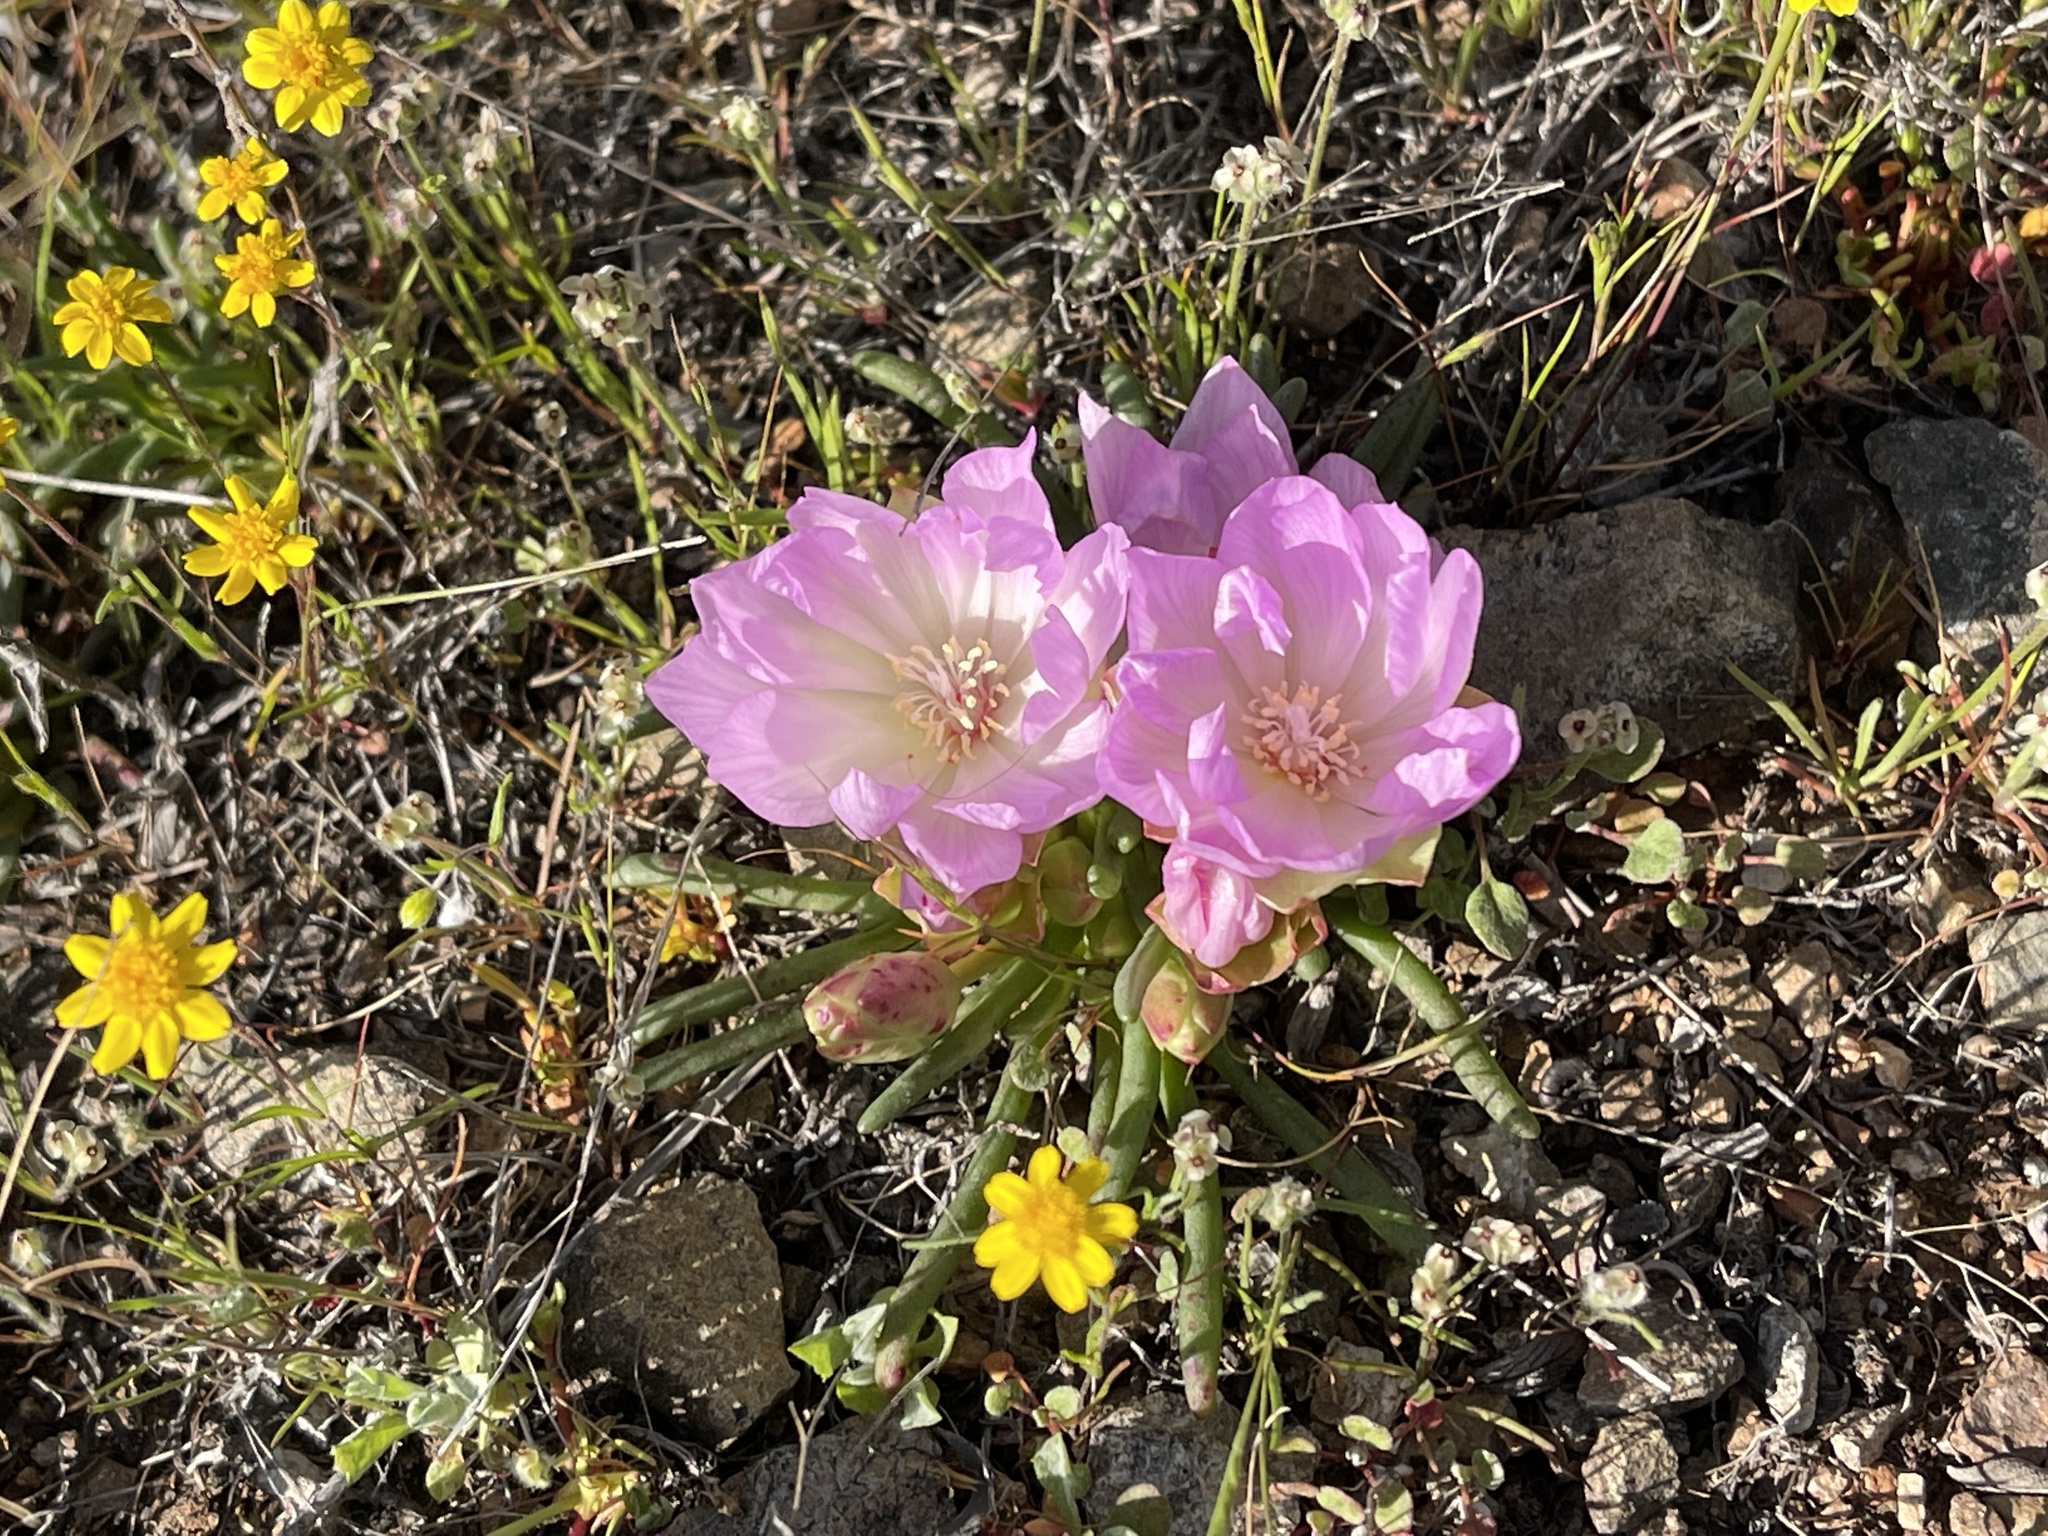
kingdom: Plantae
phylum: Tracheophyta
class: Magnoliopsida
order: Caryophyllales
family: Montiaceae
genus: Lewisia
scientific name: Lewisia rediviva
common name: Bitter-root
